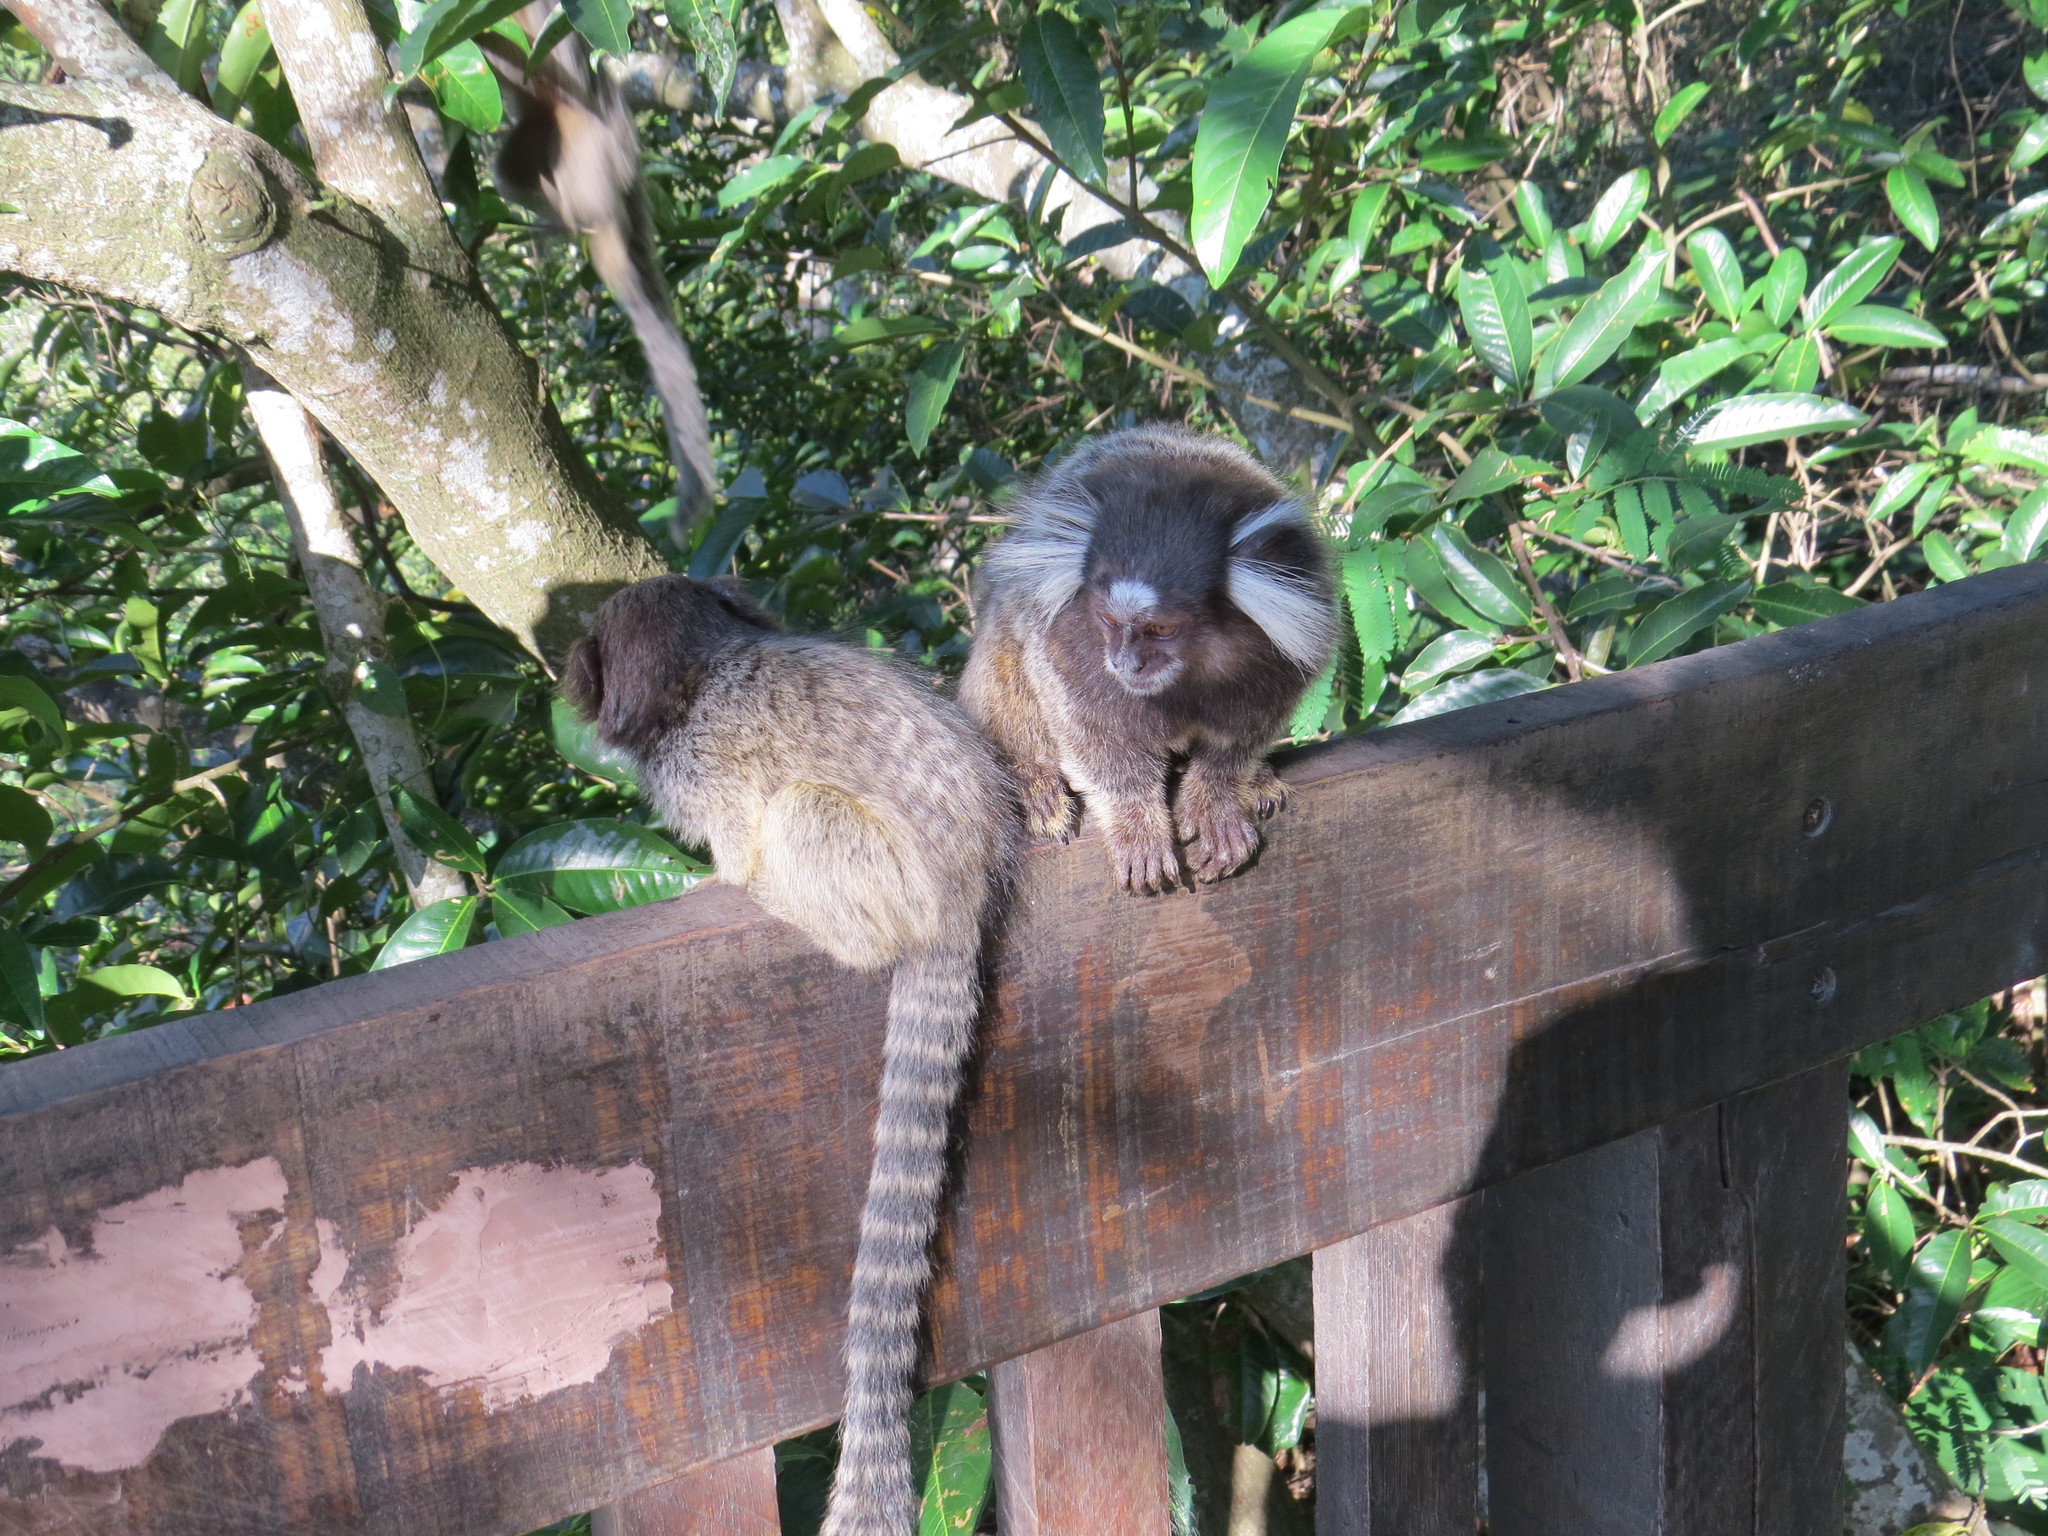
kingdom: Animalia
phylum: Chordata
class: Mammalia
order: Primates
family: Callitrichidae
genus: Callithrix
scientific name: Callithrix jacchus
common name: Common marmoset
